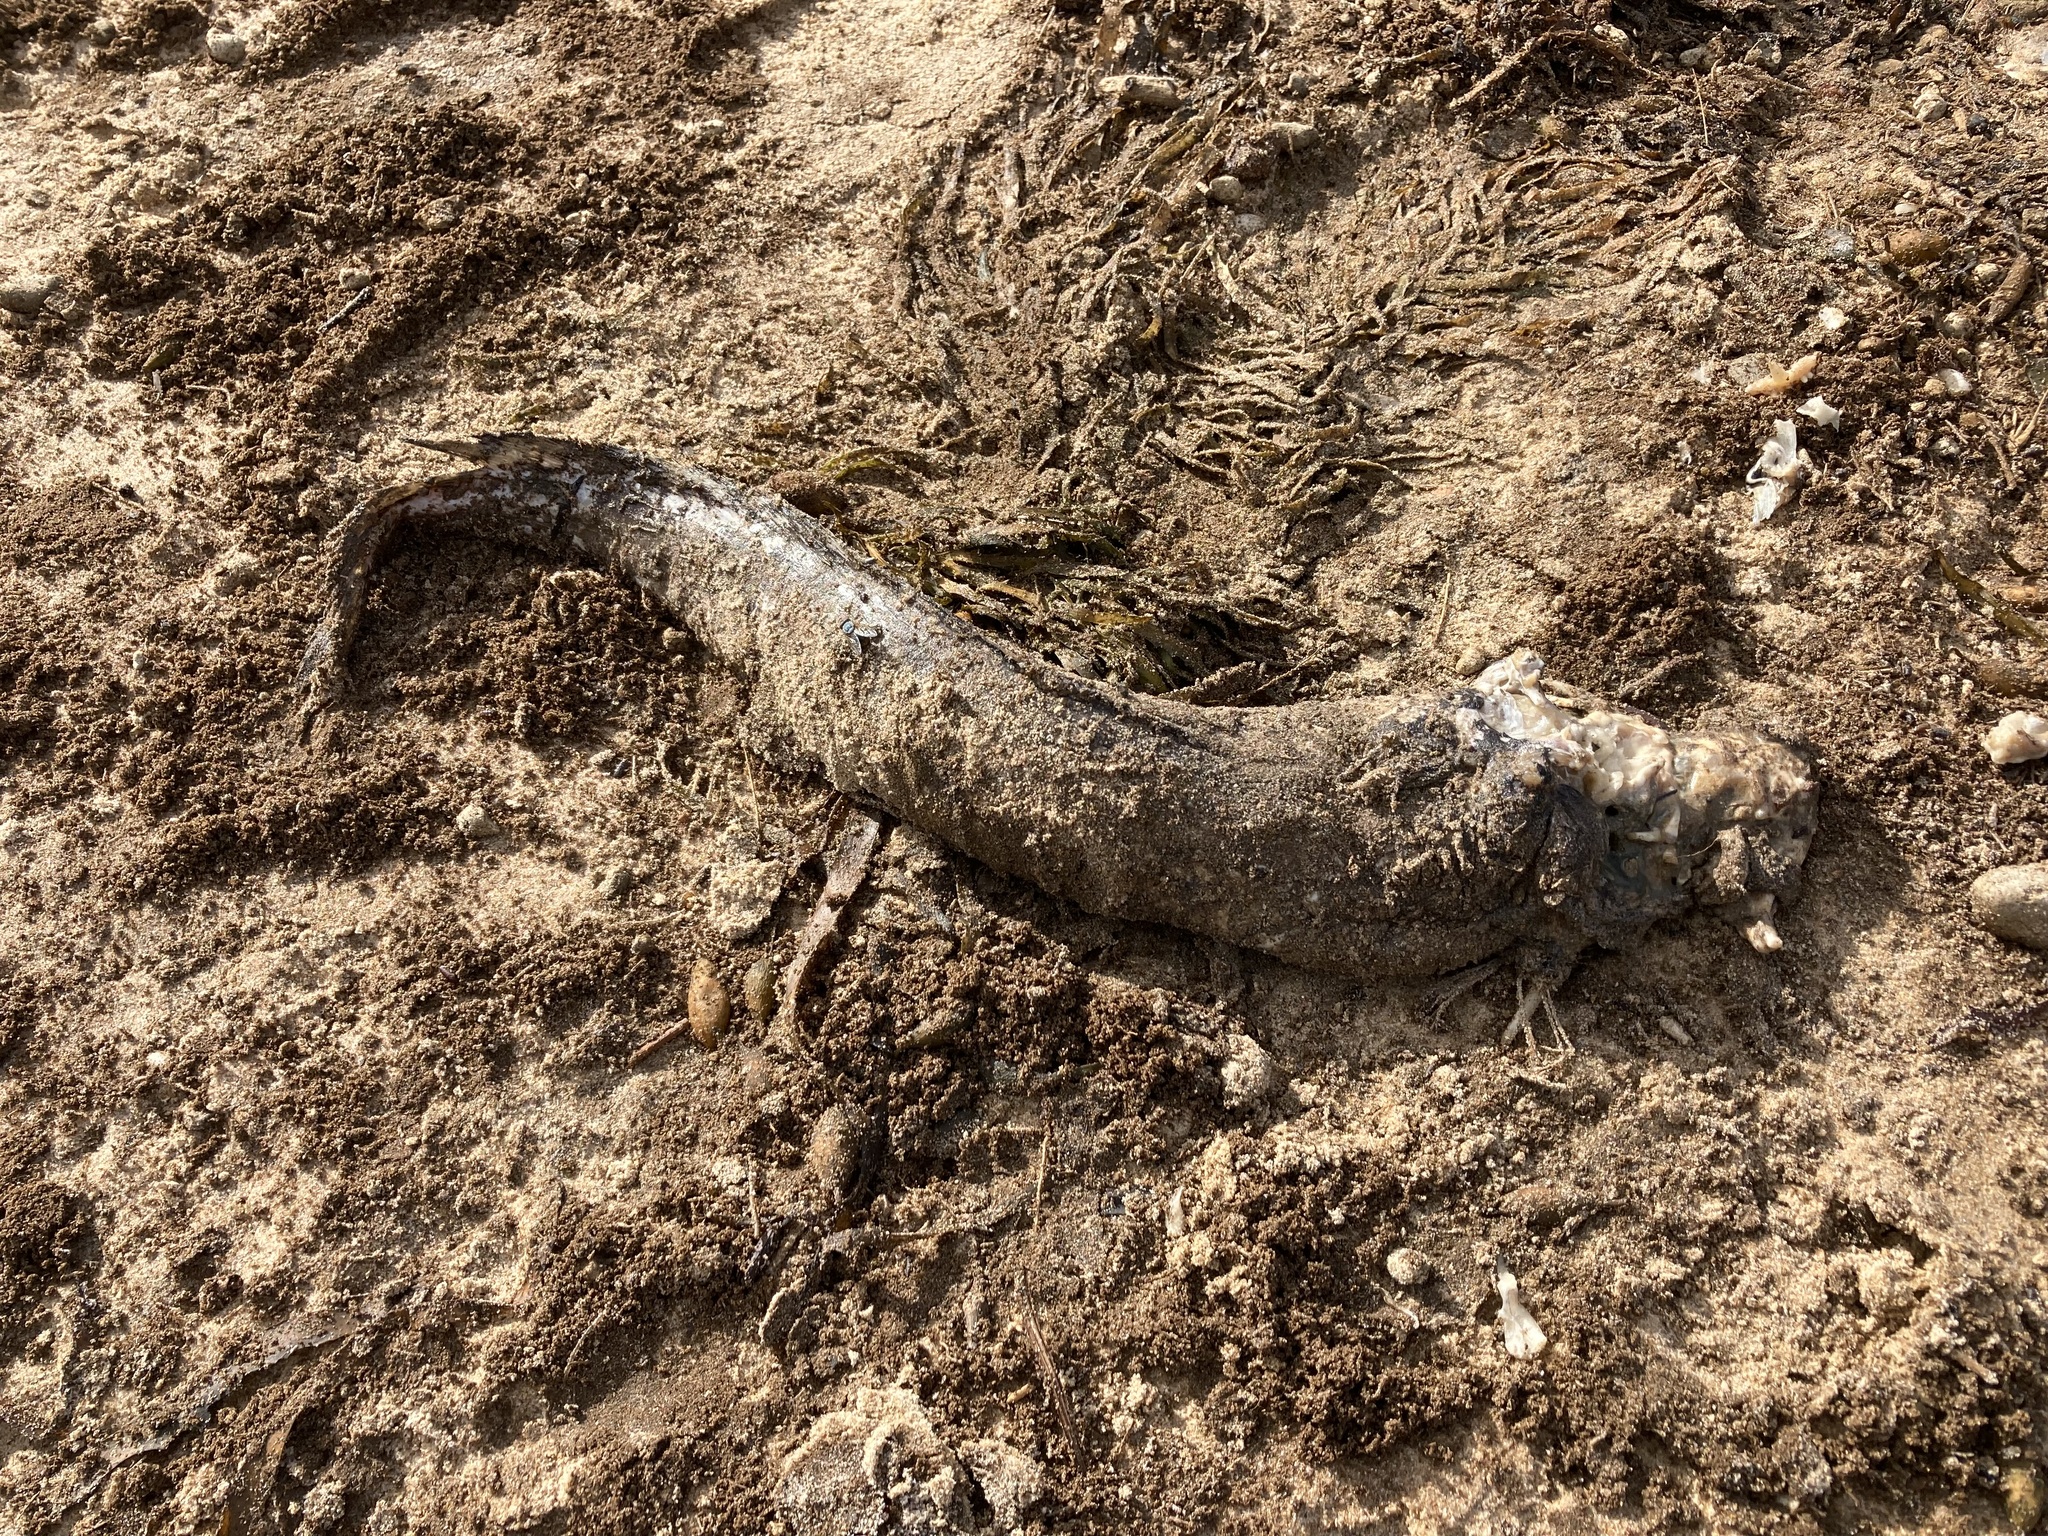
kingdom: Animalia
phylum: Chordata
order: Siluriformes
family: Plotosidae
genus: Cnidoglanis
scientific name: Cnidoglanis macrocephalus
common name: Cobbler
